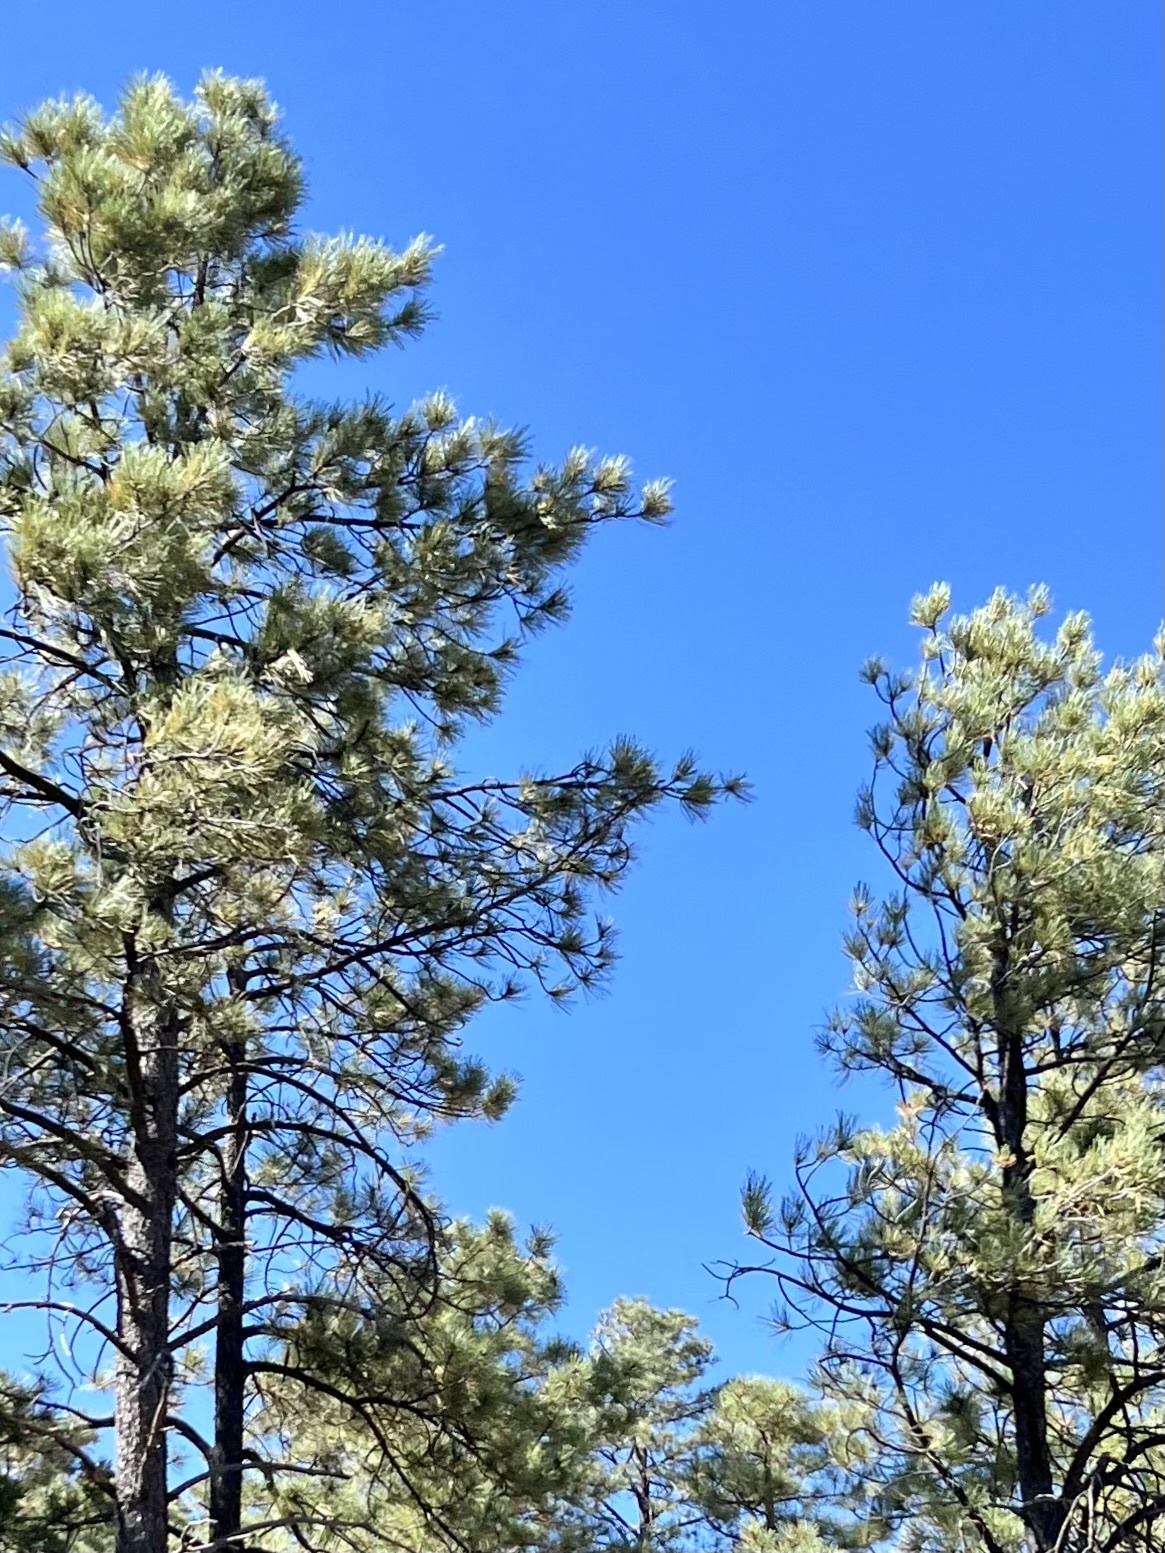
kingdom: Plantae
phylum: Tracheophyta
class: Pinopsida
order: Pinales
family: Pinaceae
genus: Pinus
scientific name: Pinus ponderosa
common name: Western yellow-pine
